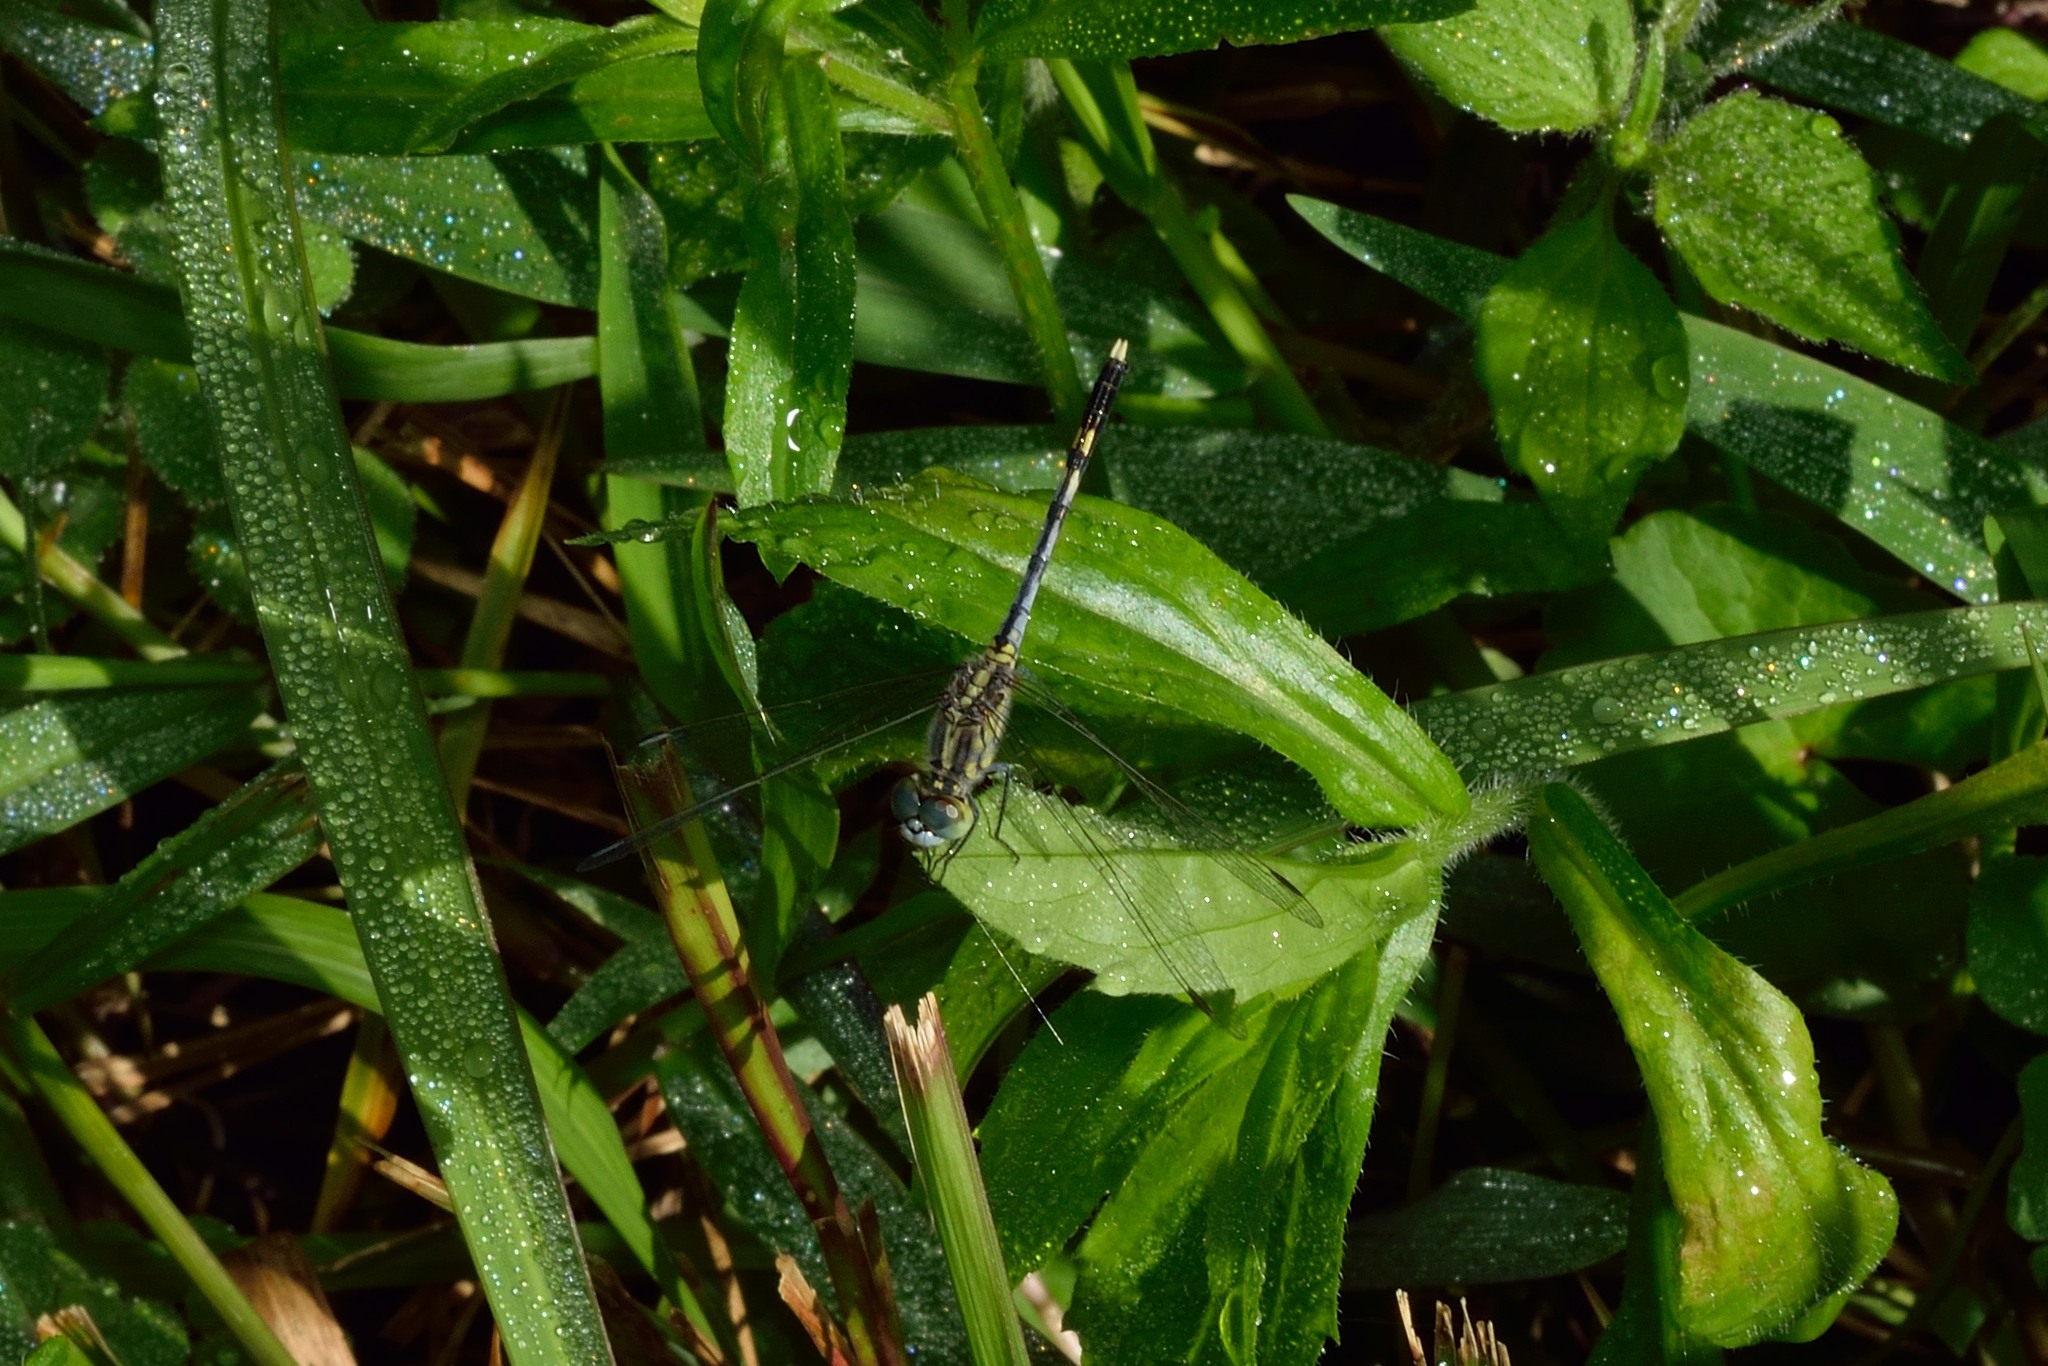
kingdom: Animalia
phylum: Arthropoda
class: Insecta
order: Odonata
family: Libellulidae
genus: Diplacodes
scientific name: Diplacodes trivialis
